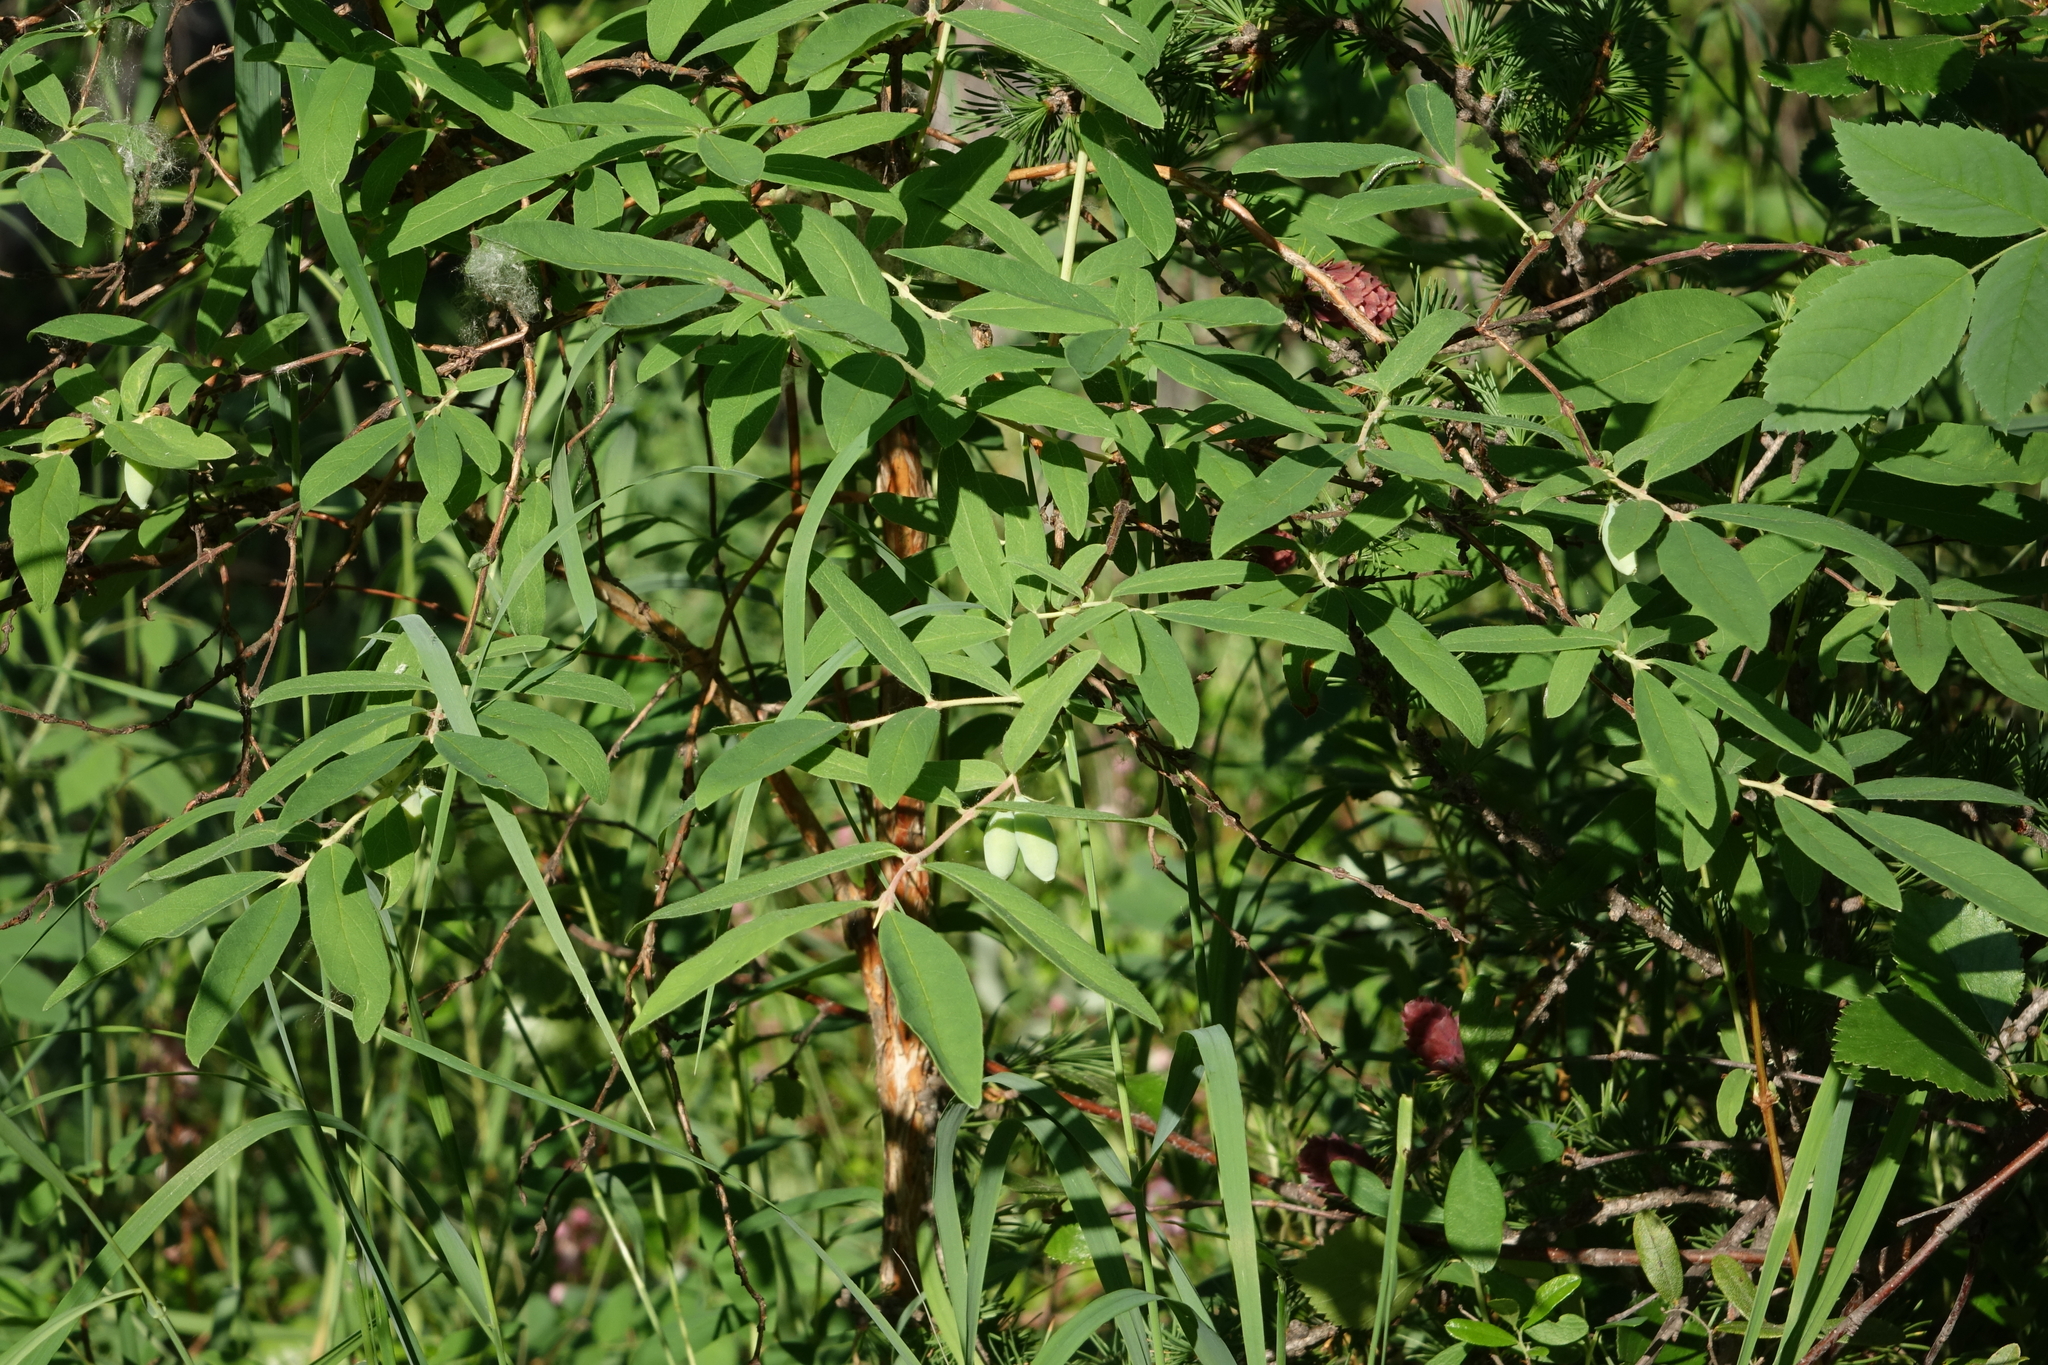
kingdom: Plantae
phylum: Tracheophyta
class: Magnoliopsida
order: Dipsacales
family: Caprifoliaceae
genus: Lonicera
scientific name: Lonicera caerulea
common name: Blue honeysuckle
